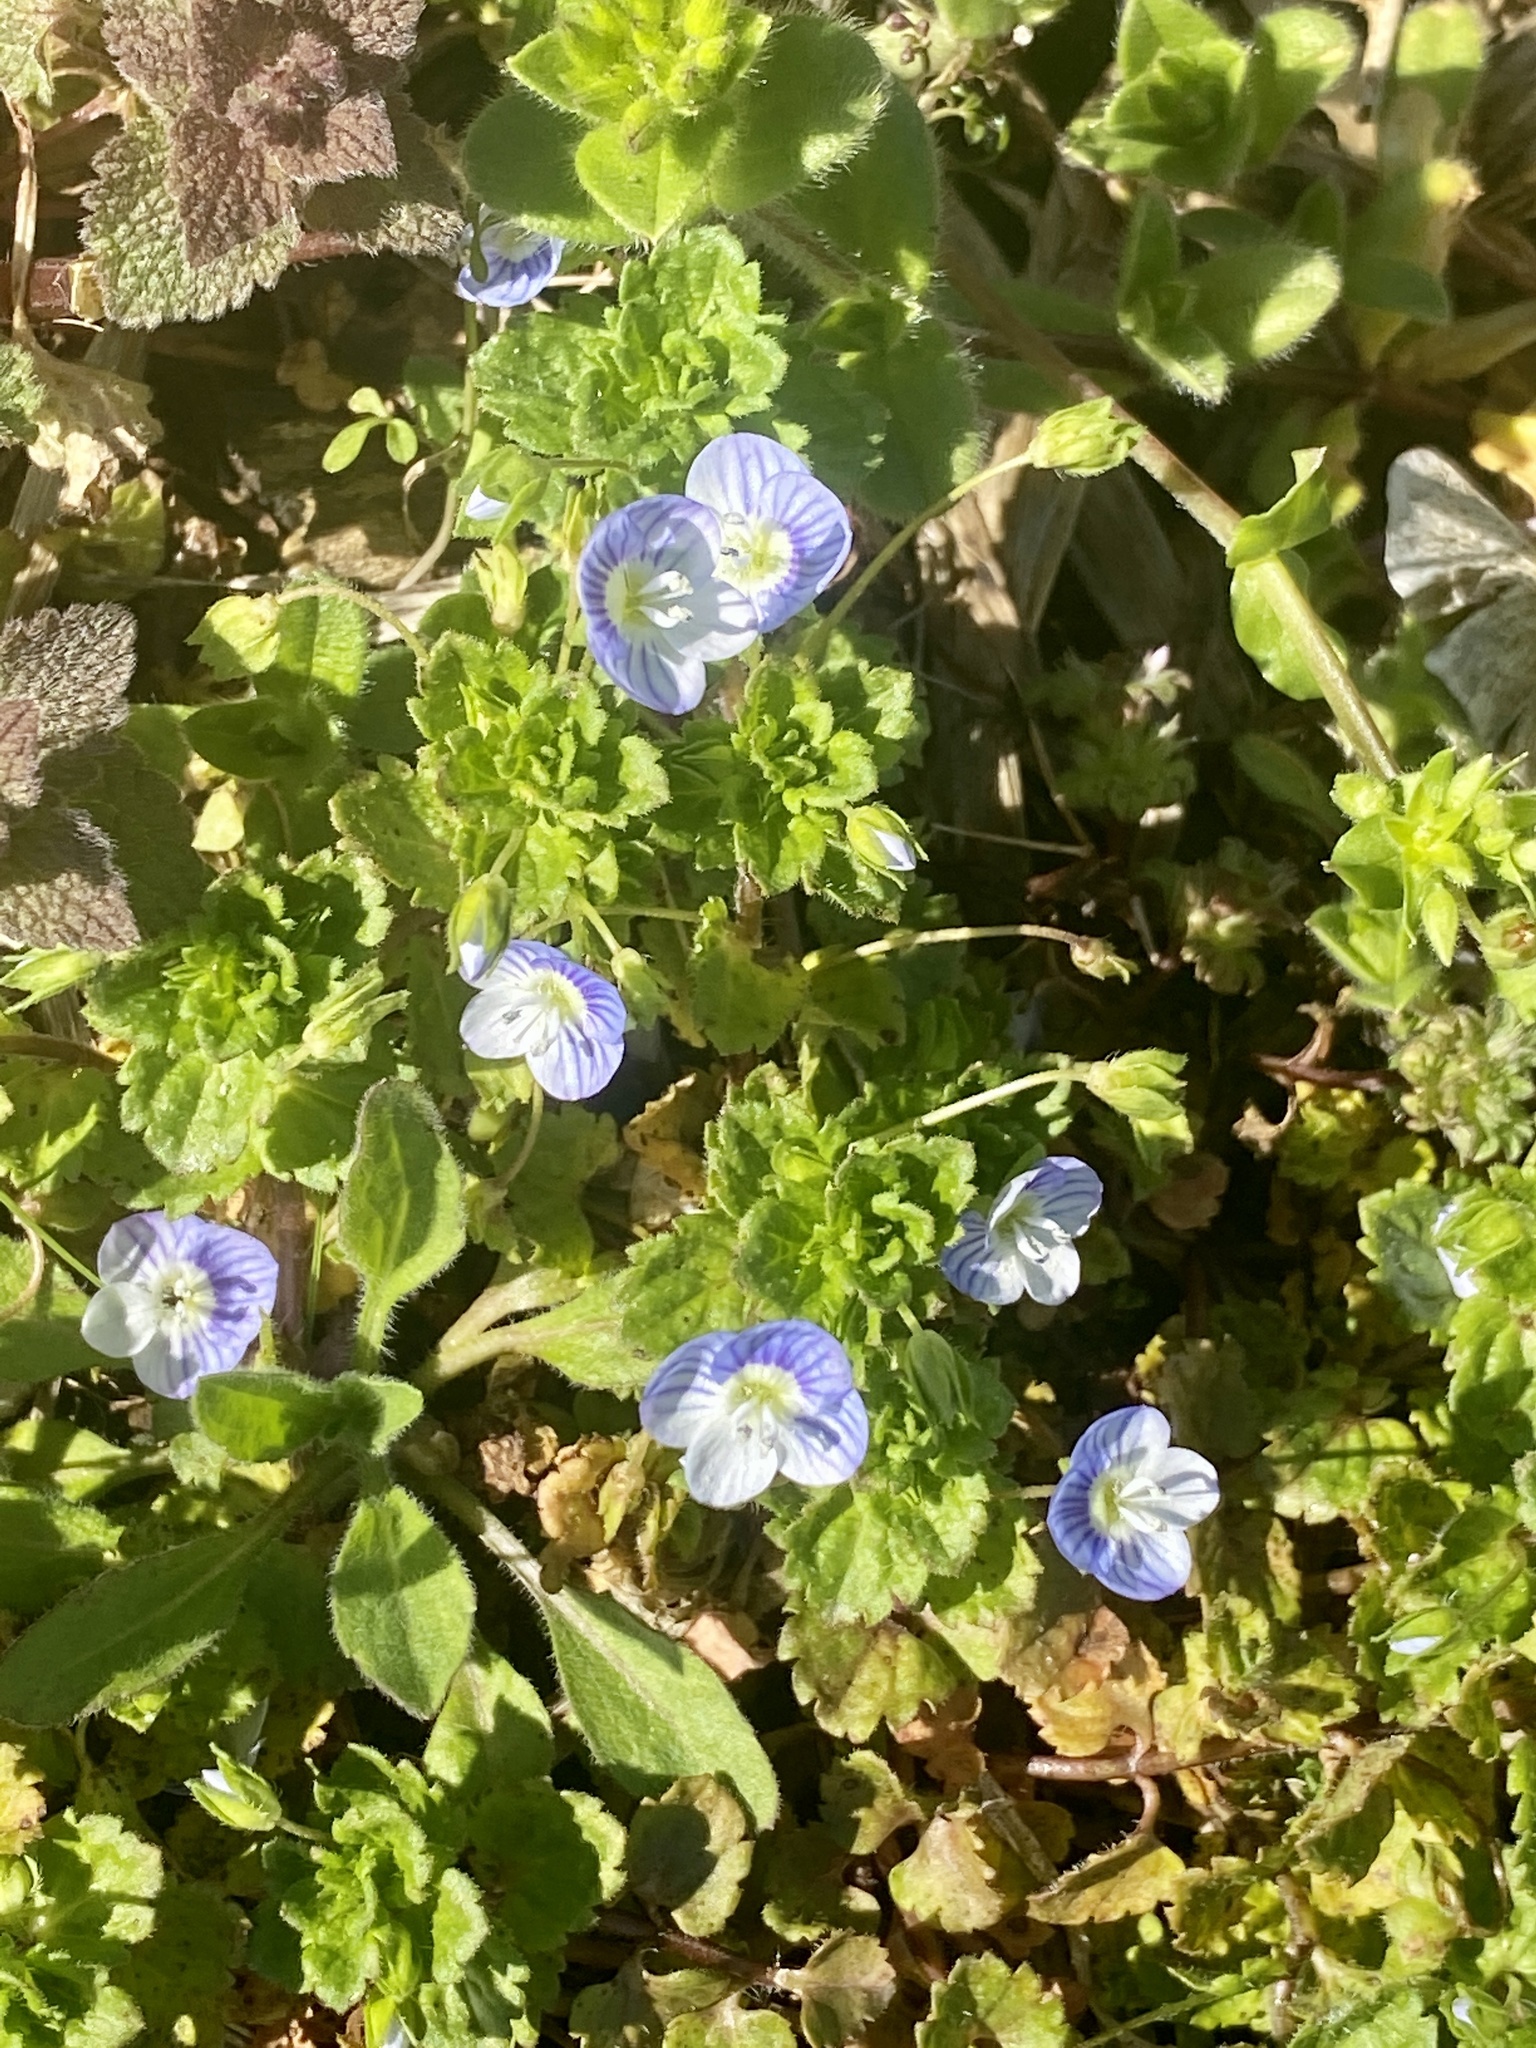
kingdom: Plantae
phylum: Tracheophyta
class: Magnoliopsida
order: Lamiales
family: Plantaginaceae
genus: Veronica
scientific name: Veronica persica
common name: Common field-speedwell
